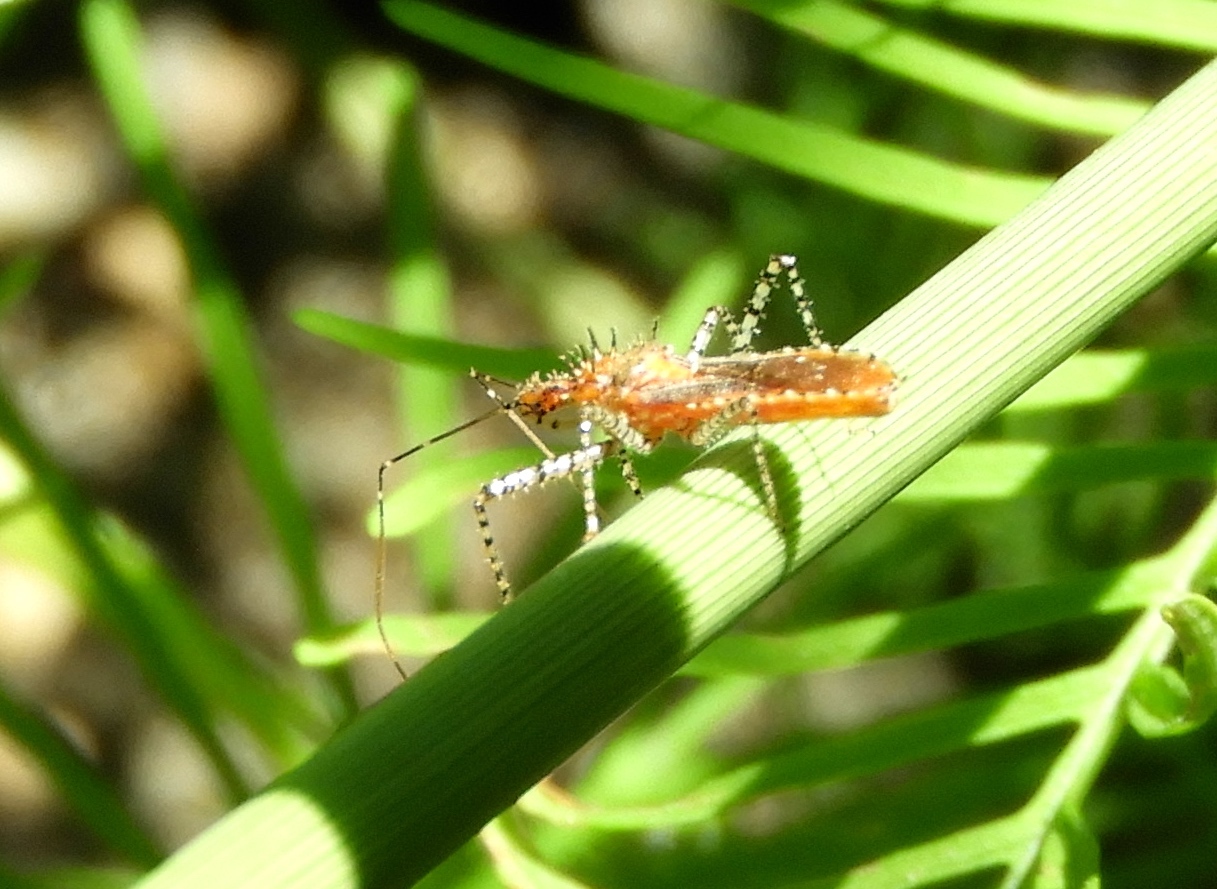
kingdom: Animalia
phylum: Arthropoda
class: Insecta
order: Hemiptera
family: Reduviidae
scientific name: Reduviidae
